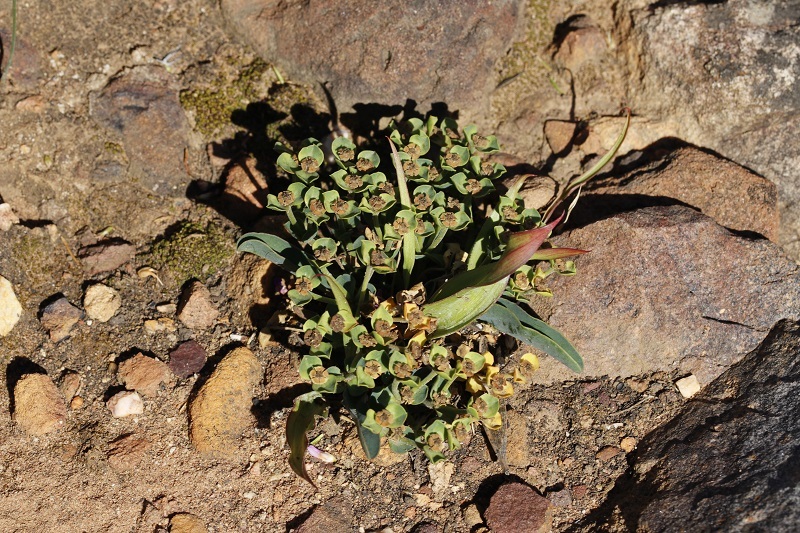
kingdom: Plantae
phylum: Tracheophyta
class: Magnoliopsida
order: Malpighiales
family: Euphorbiaceae
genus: Euphorbia
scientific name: Euphorbia tuberosa
